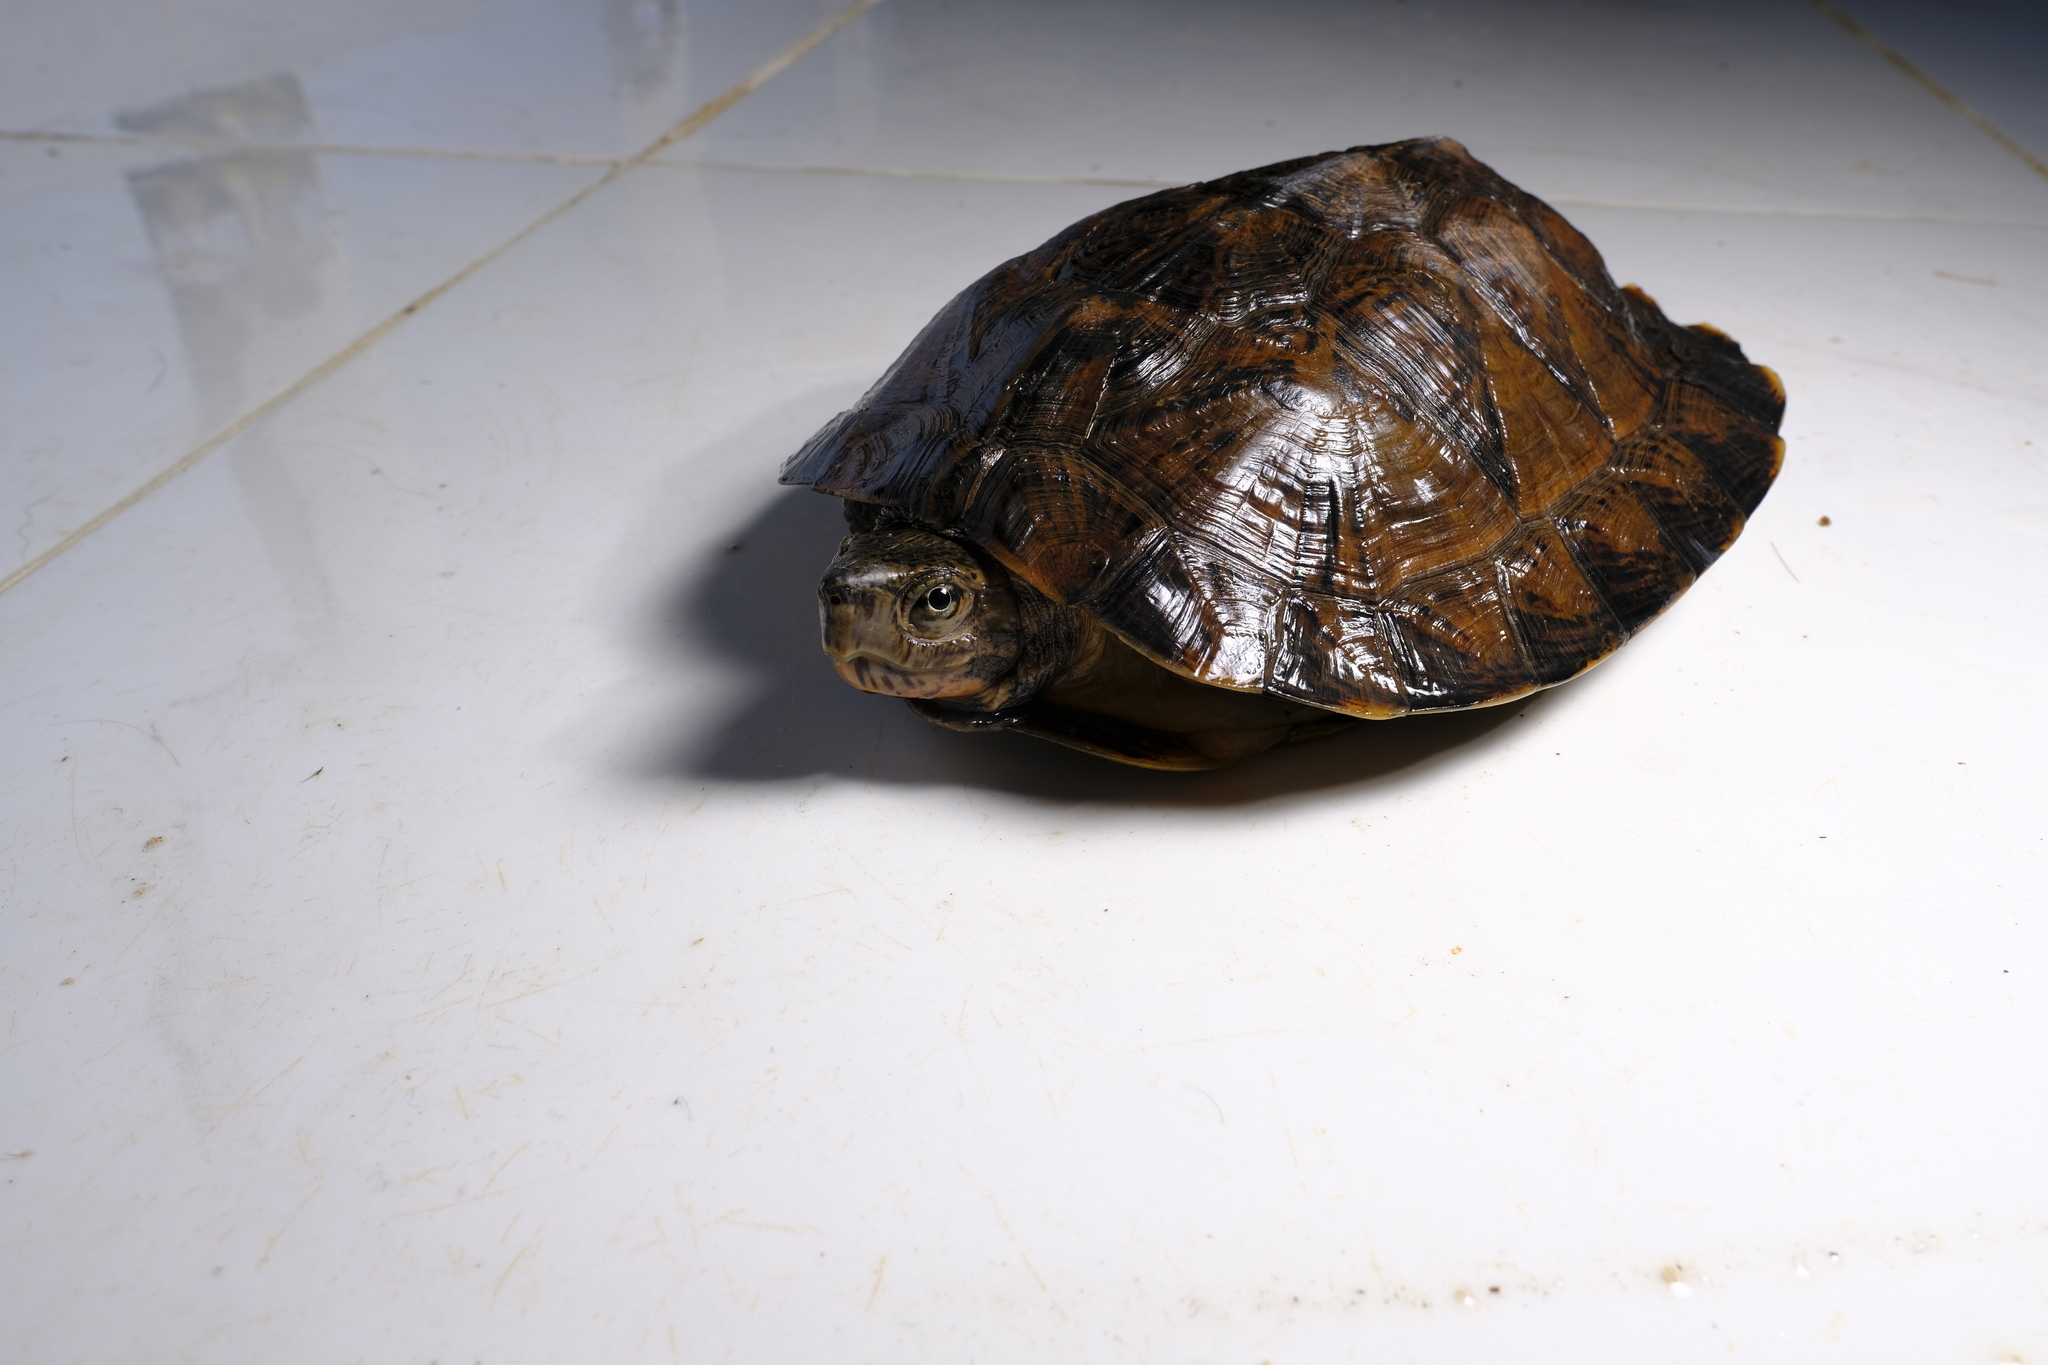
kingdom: Animalia
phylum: Chordata
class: Testudines
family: Geoemydidae
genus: Cyclemys
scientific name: Cyclemys pulchristriata
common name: Eastern black-bridged leaf turtle
